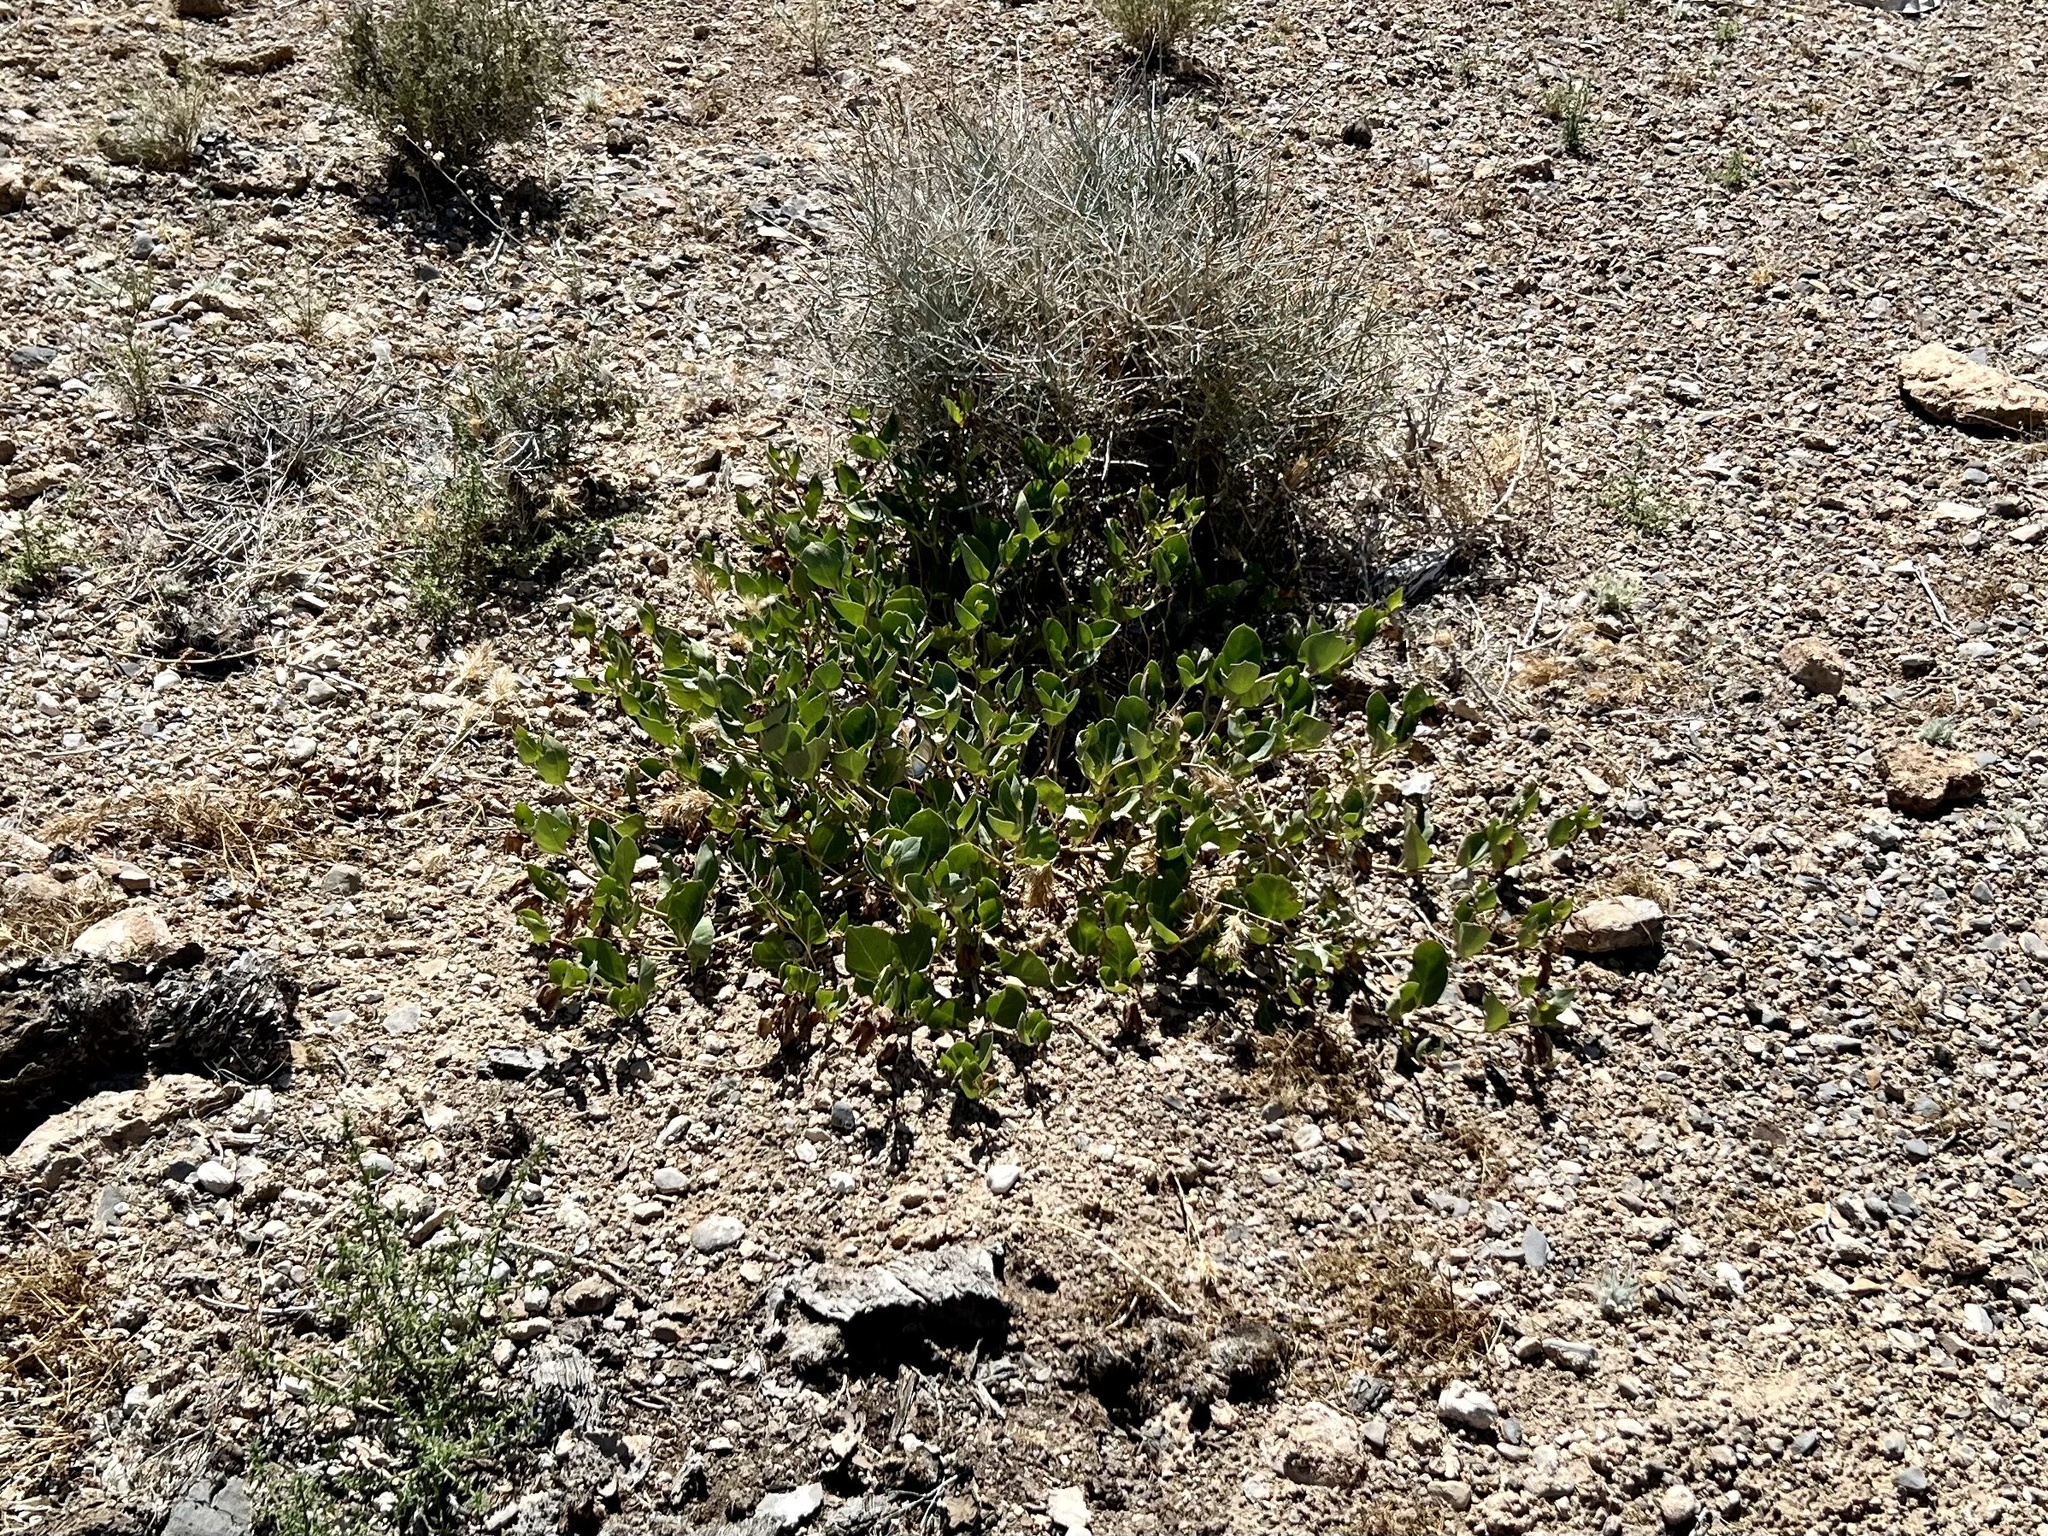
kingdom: Plantae
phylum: Tracheophyta
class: Magnoliopsida
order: Caryophyllales
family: Nyctaginaceae
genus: Mirabilis
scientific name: Mirabilis multiflora
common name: Froebel's four-o'clock
